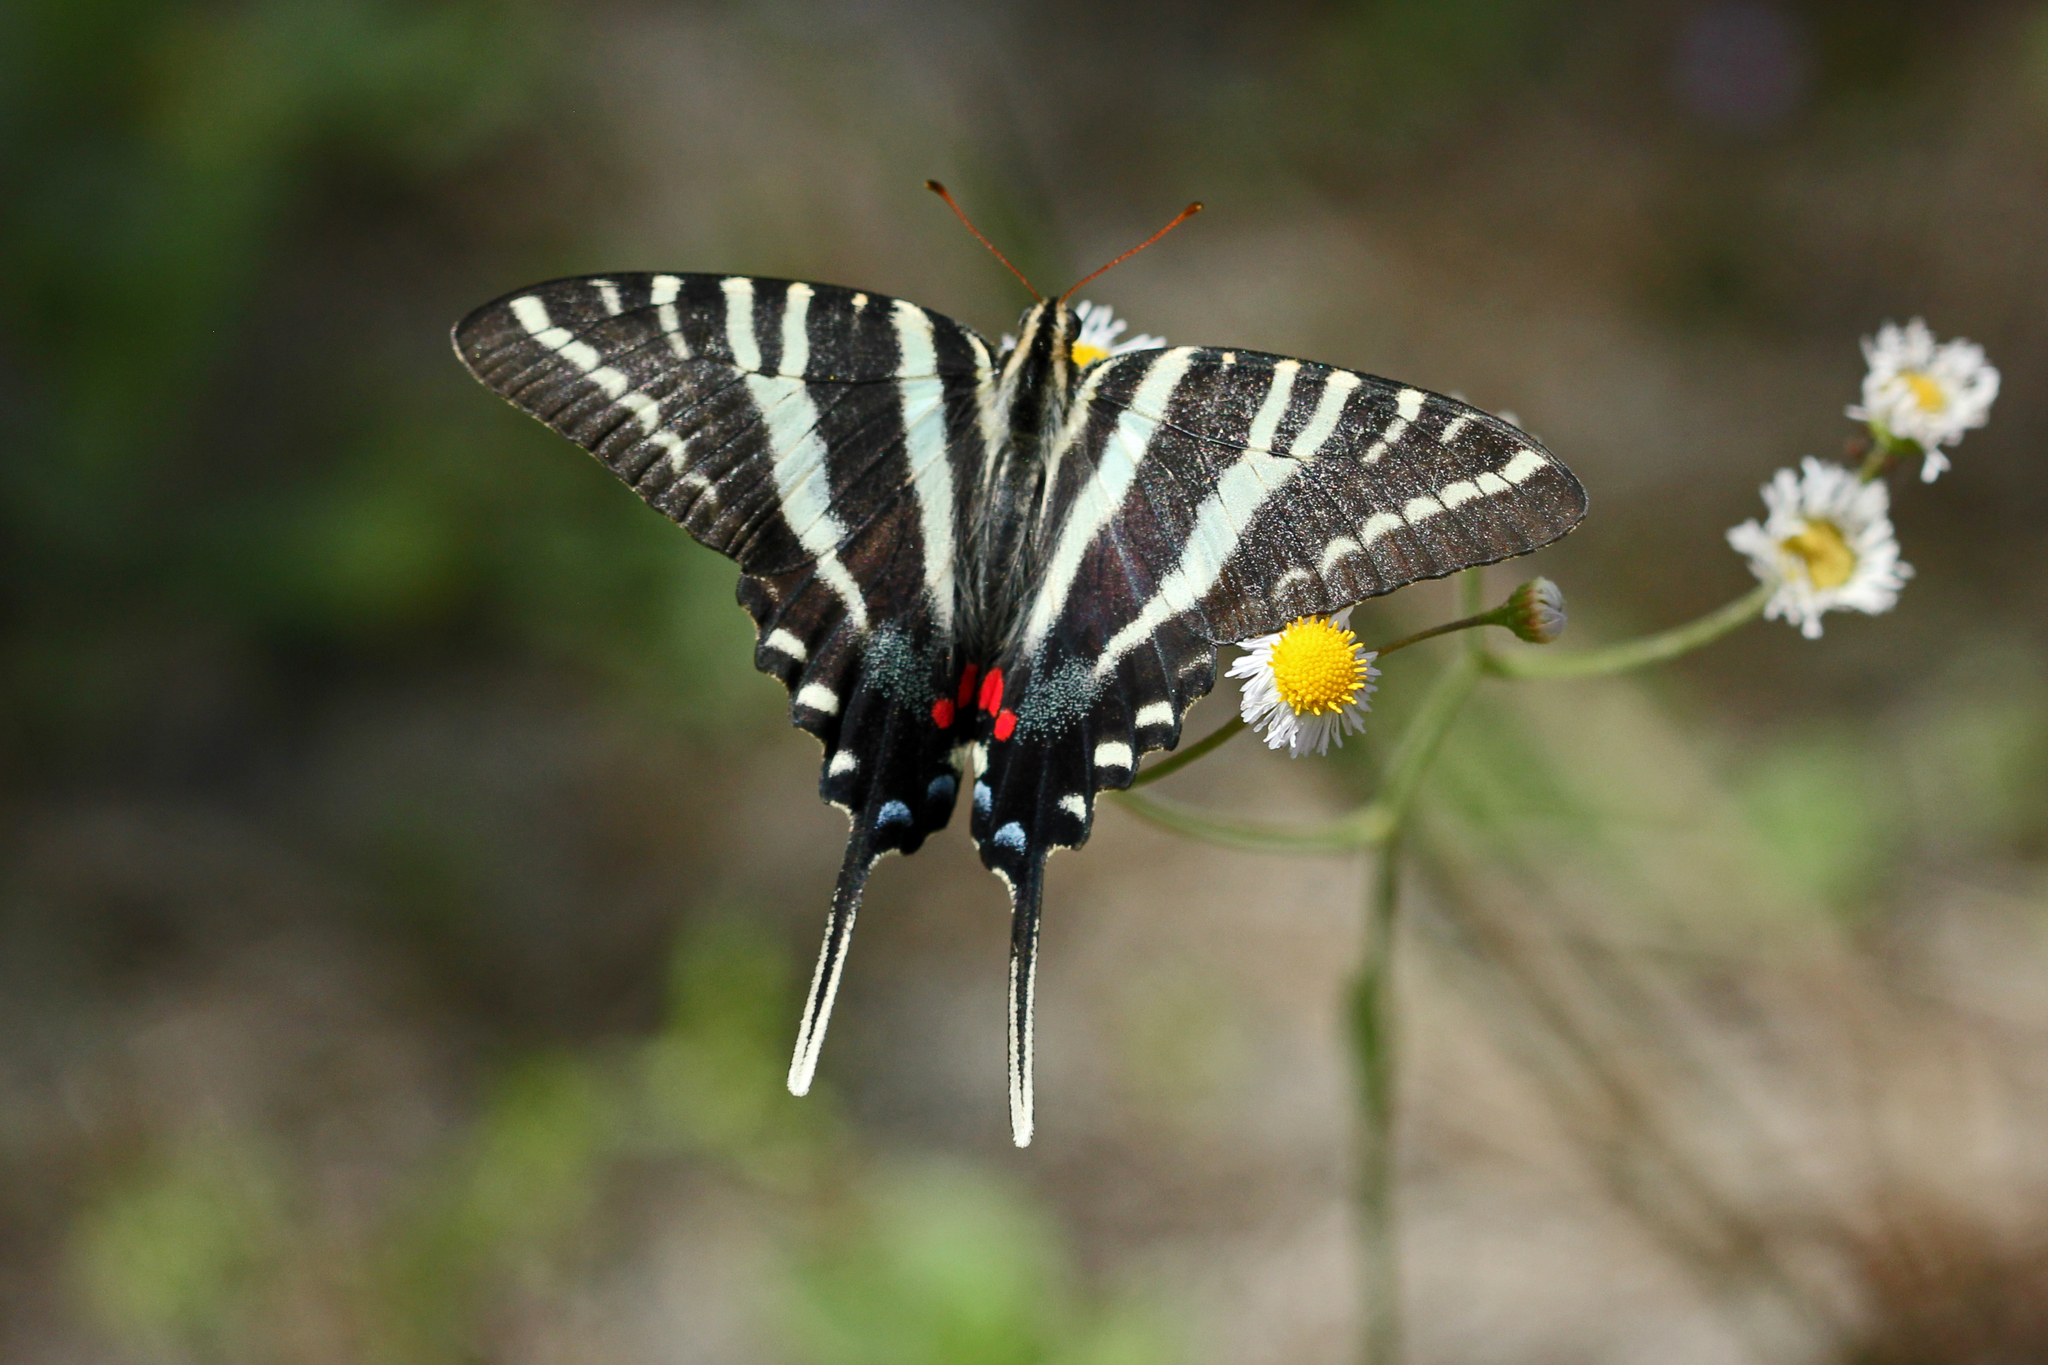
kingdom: Animalia
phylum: Arthropoda
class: Insecta
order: Lepidoptera
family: Papilionidae
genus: Protographium
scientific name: Protographium marcellus
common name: Zebra swallowtail
